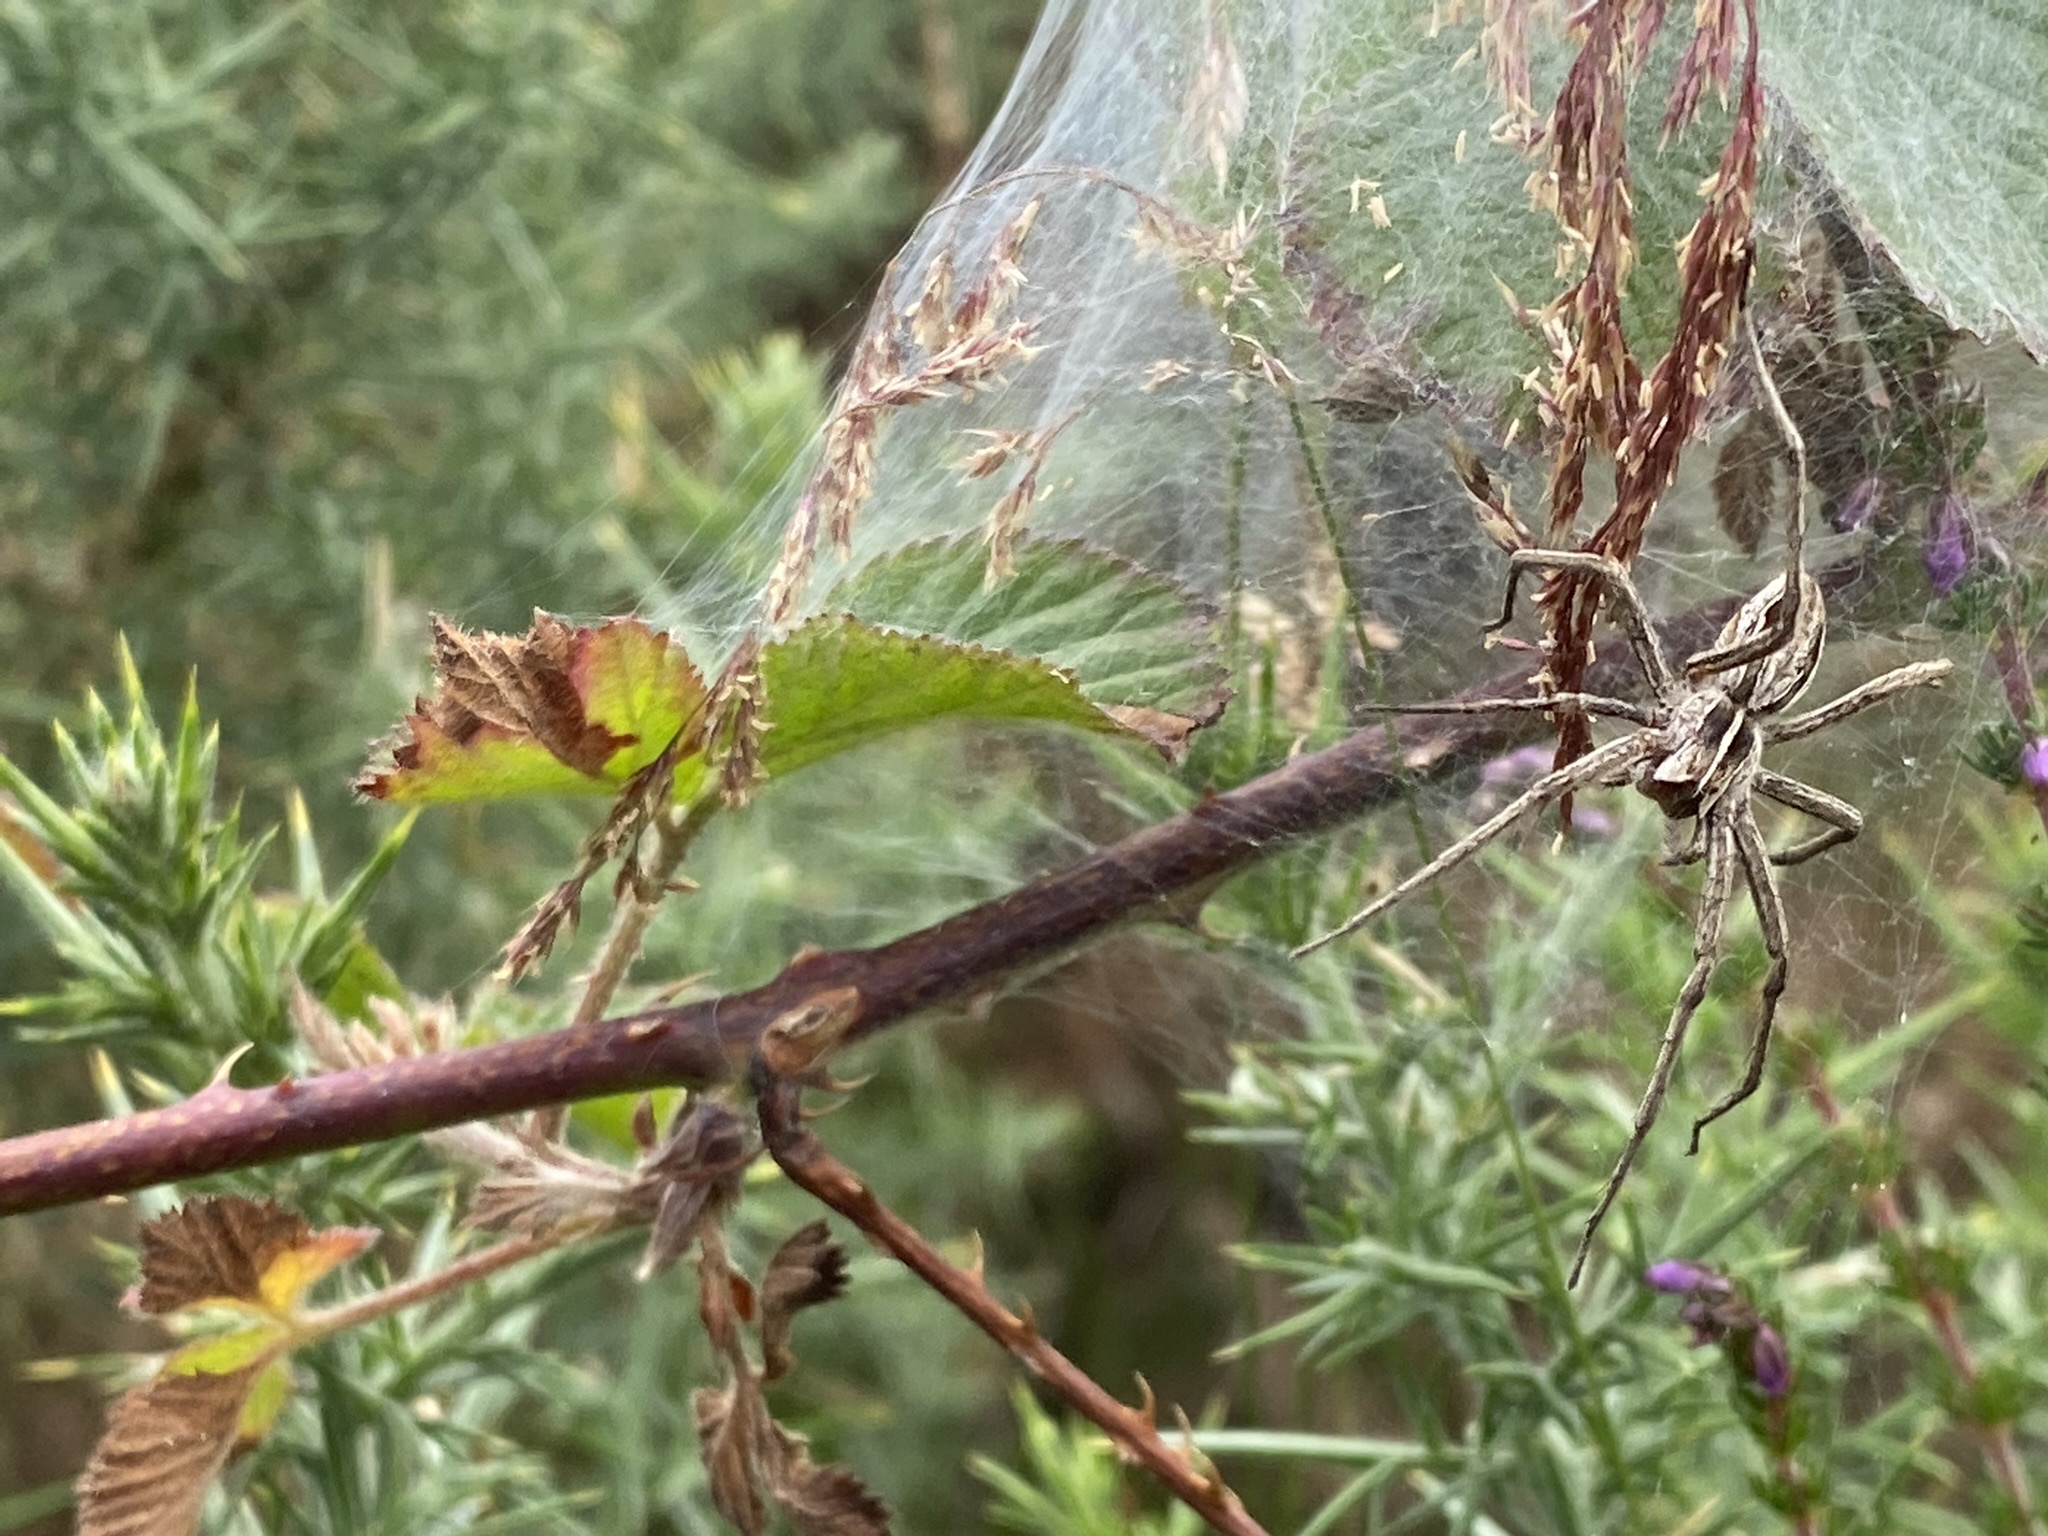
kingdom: Animalia
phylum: Arthropoda
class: Arachnida
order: Araneae
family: Pisauridae
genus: Pisaura
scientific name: Pisaura mirabilis
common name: Tent spider
